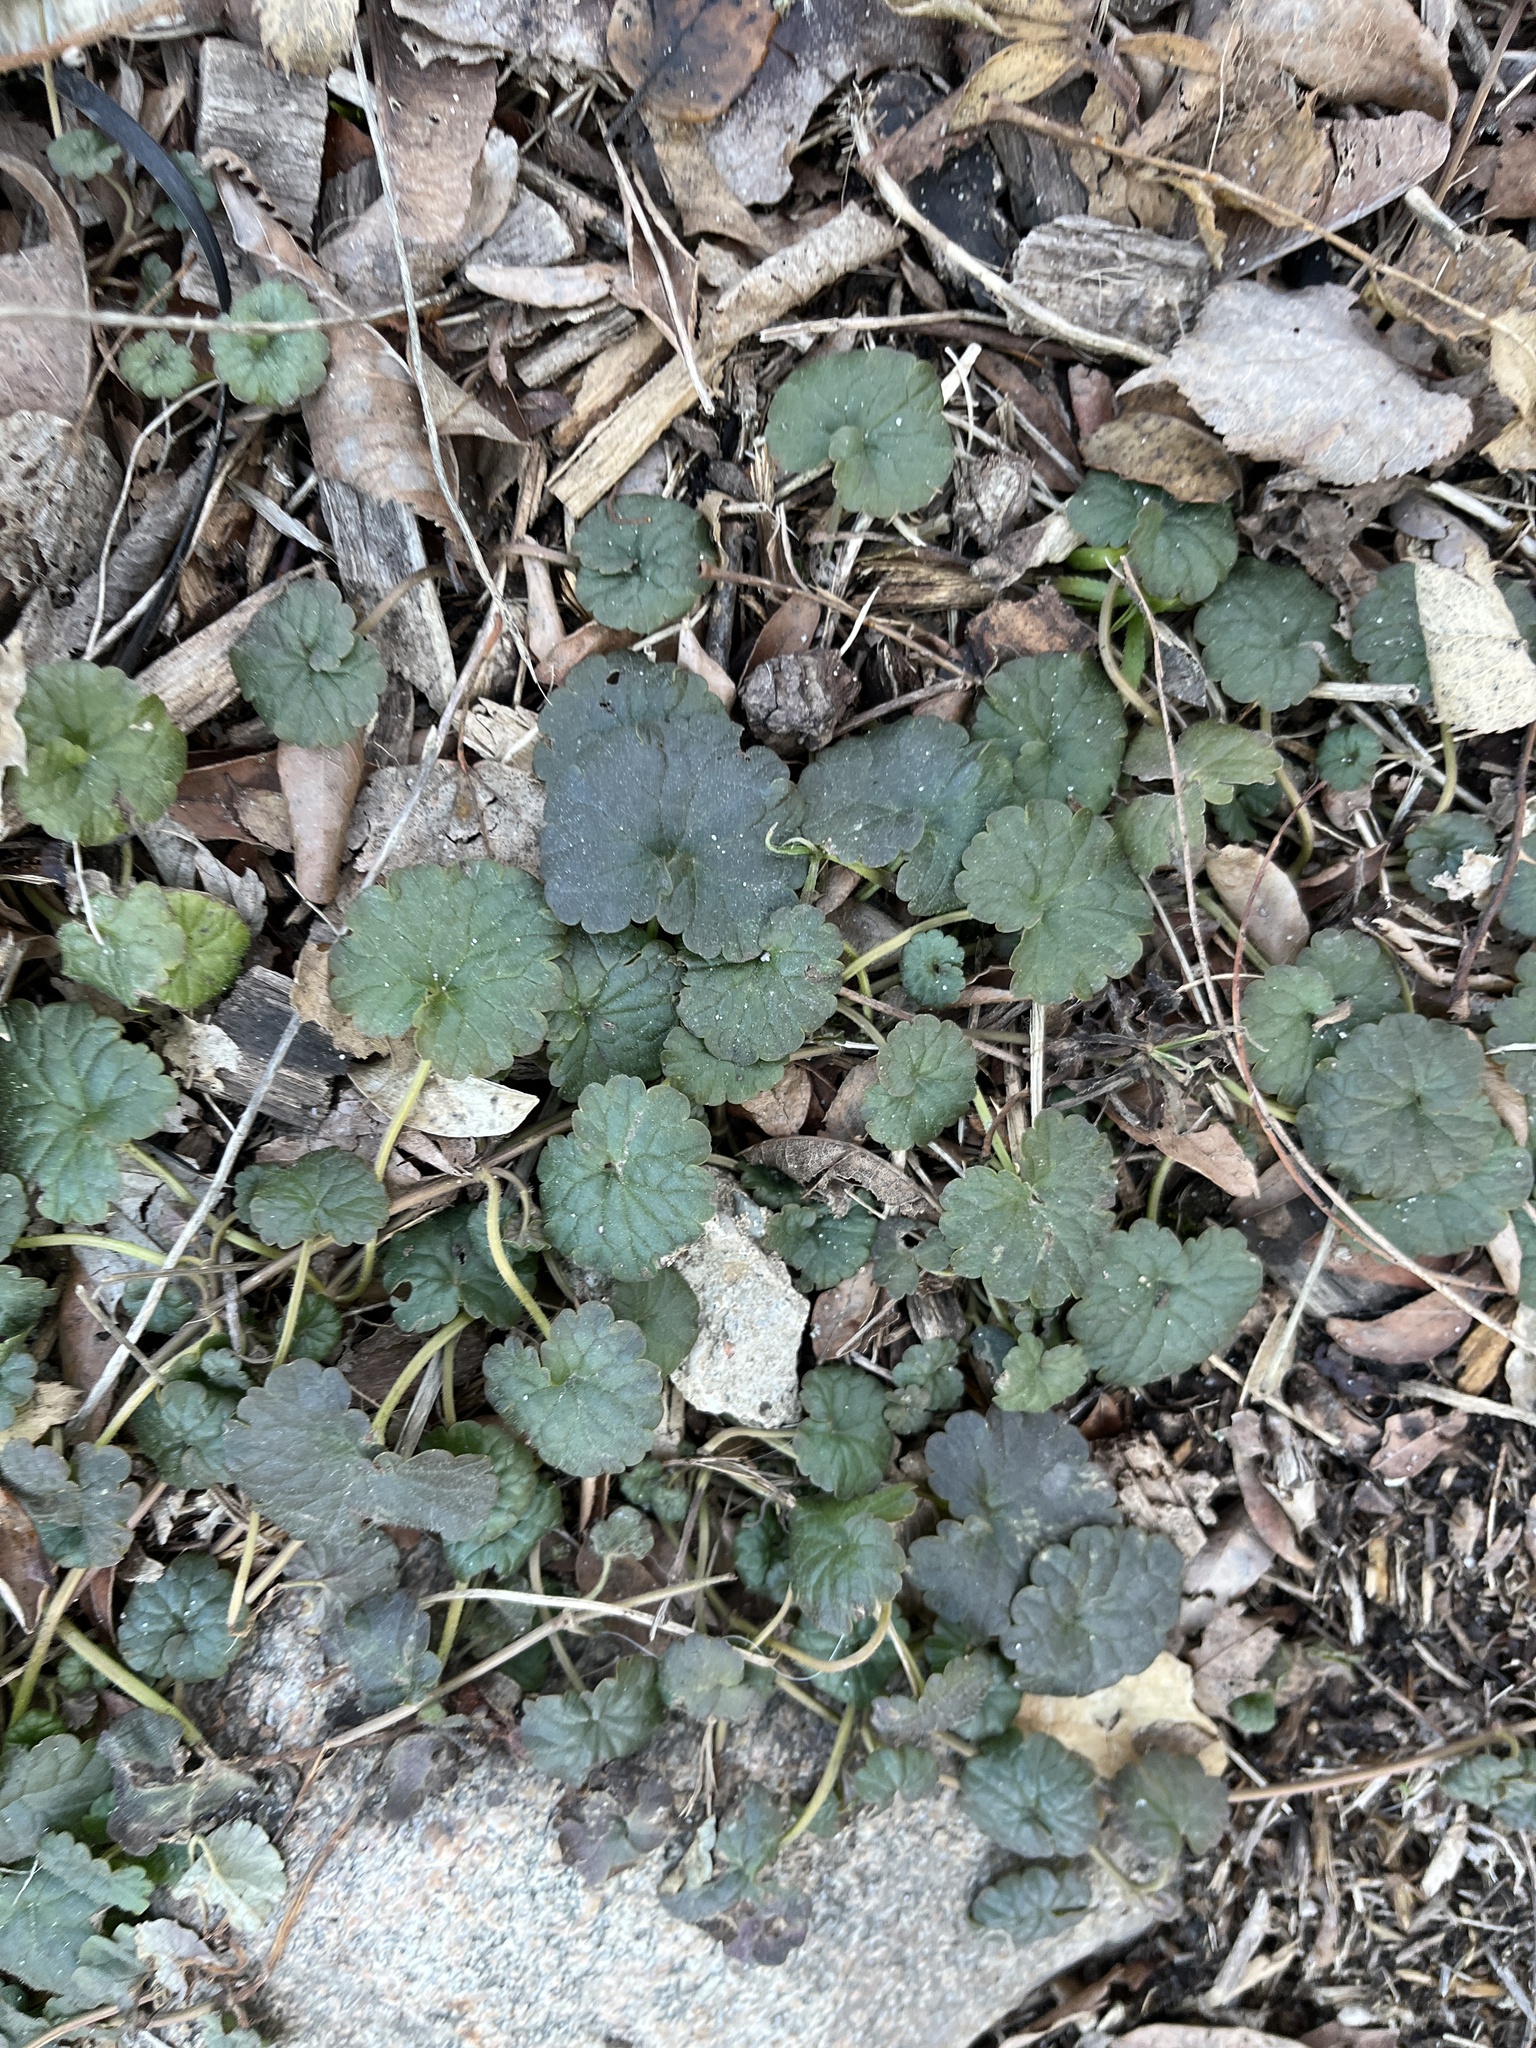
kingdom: Plantae
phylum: Tracheophyta
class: Magnoliopsida
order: Lamiales
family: Lamiaceae
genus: Glechoma
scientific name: Glechoma hederacea
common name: Ground ivy
